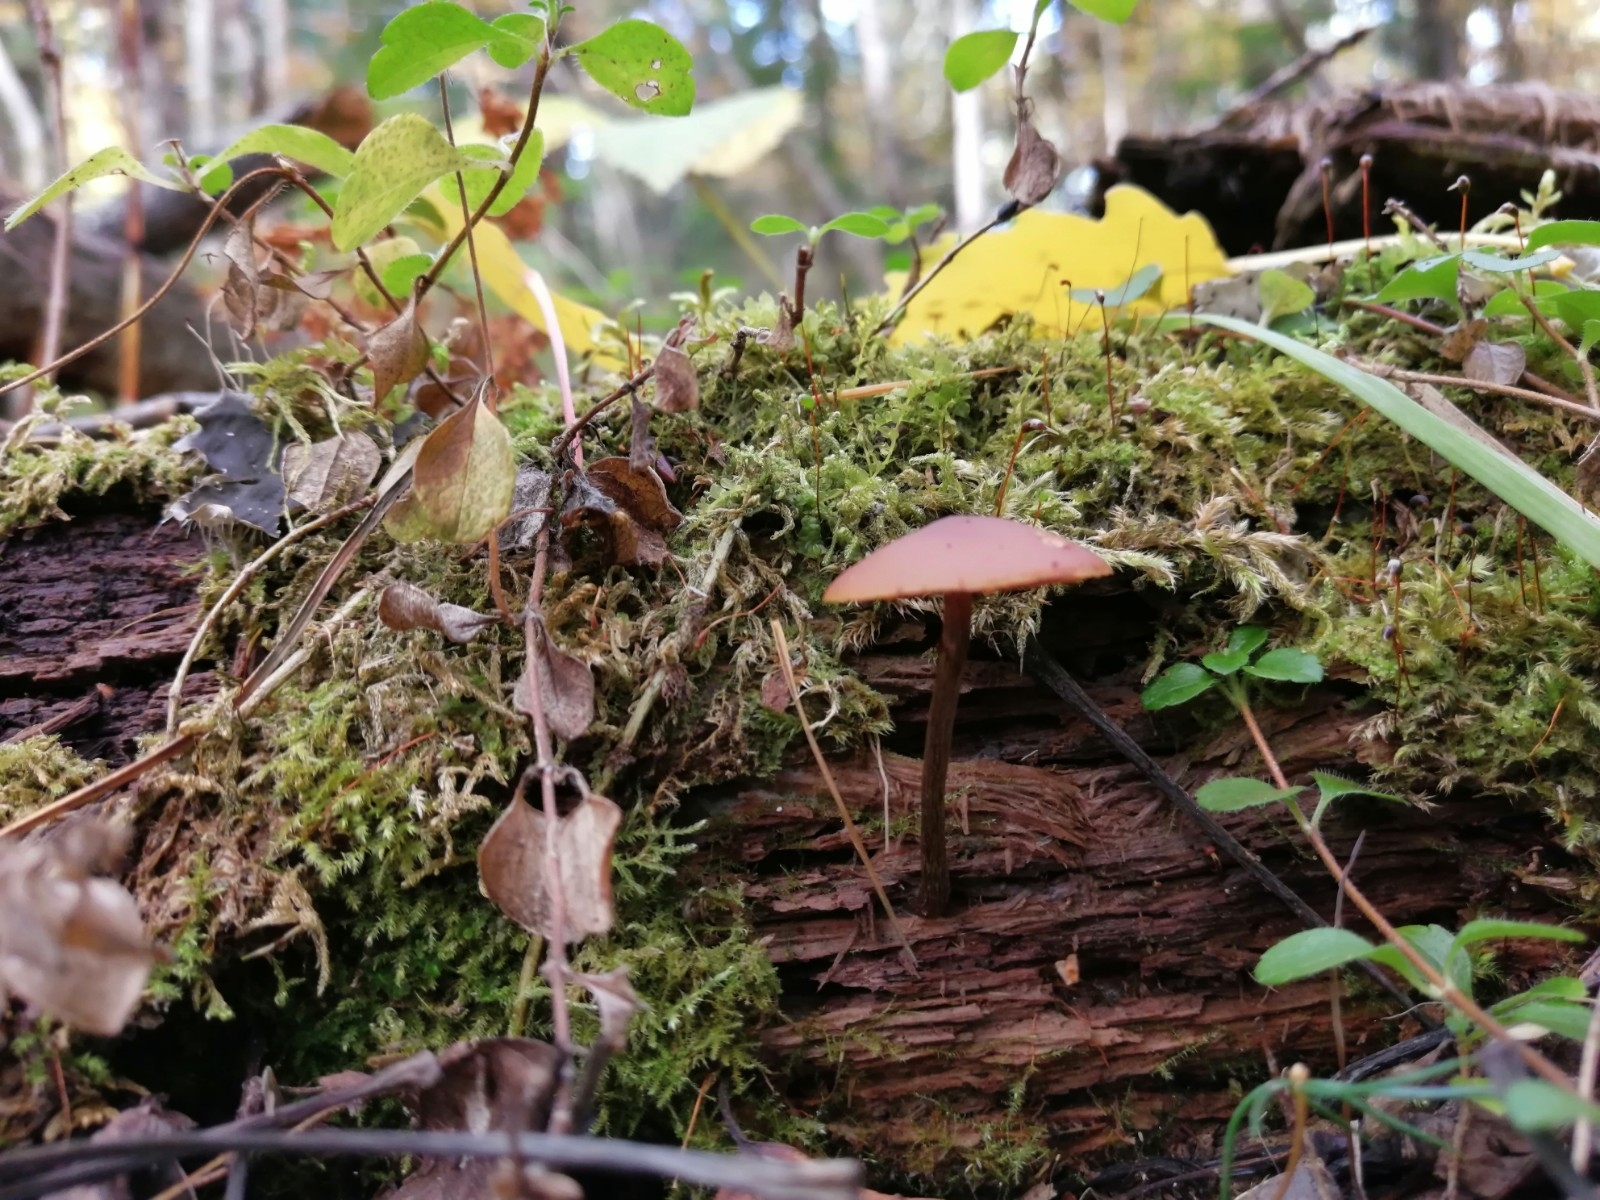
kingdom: Fungi
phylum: Basidiomycota
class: Agaricomycetes
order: Agaricales
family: Hymenogastraceae
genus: Galerina
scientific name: Galerina marginata
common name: Funeral bell
